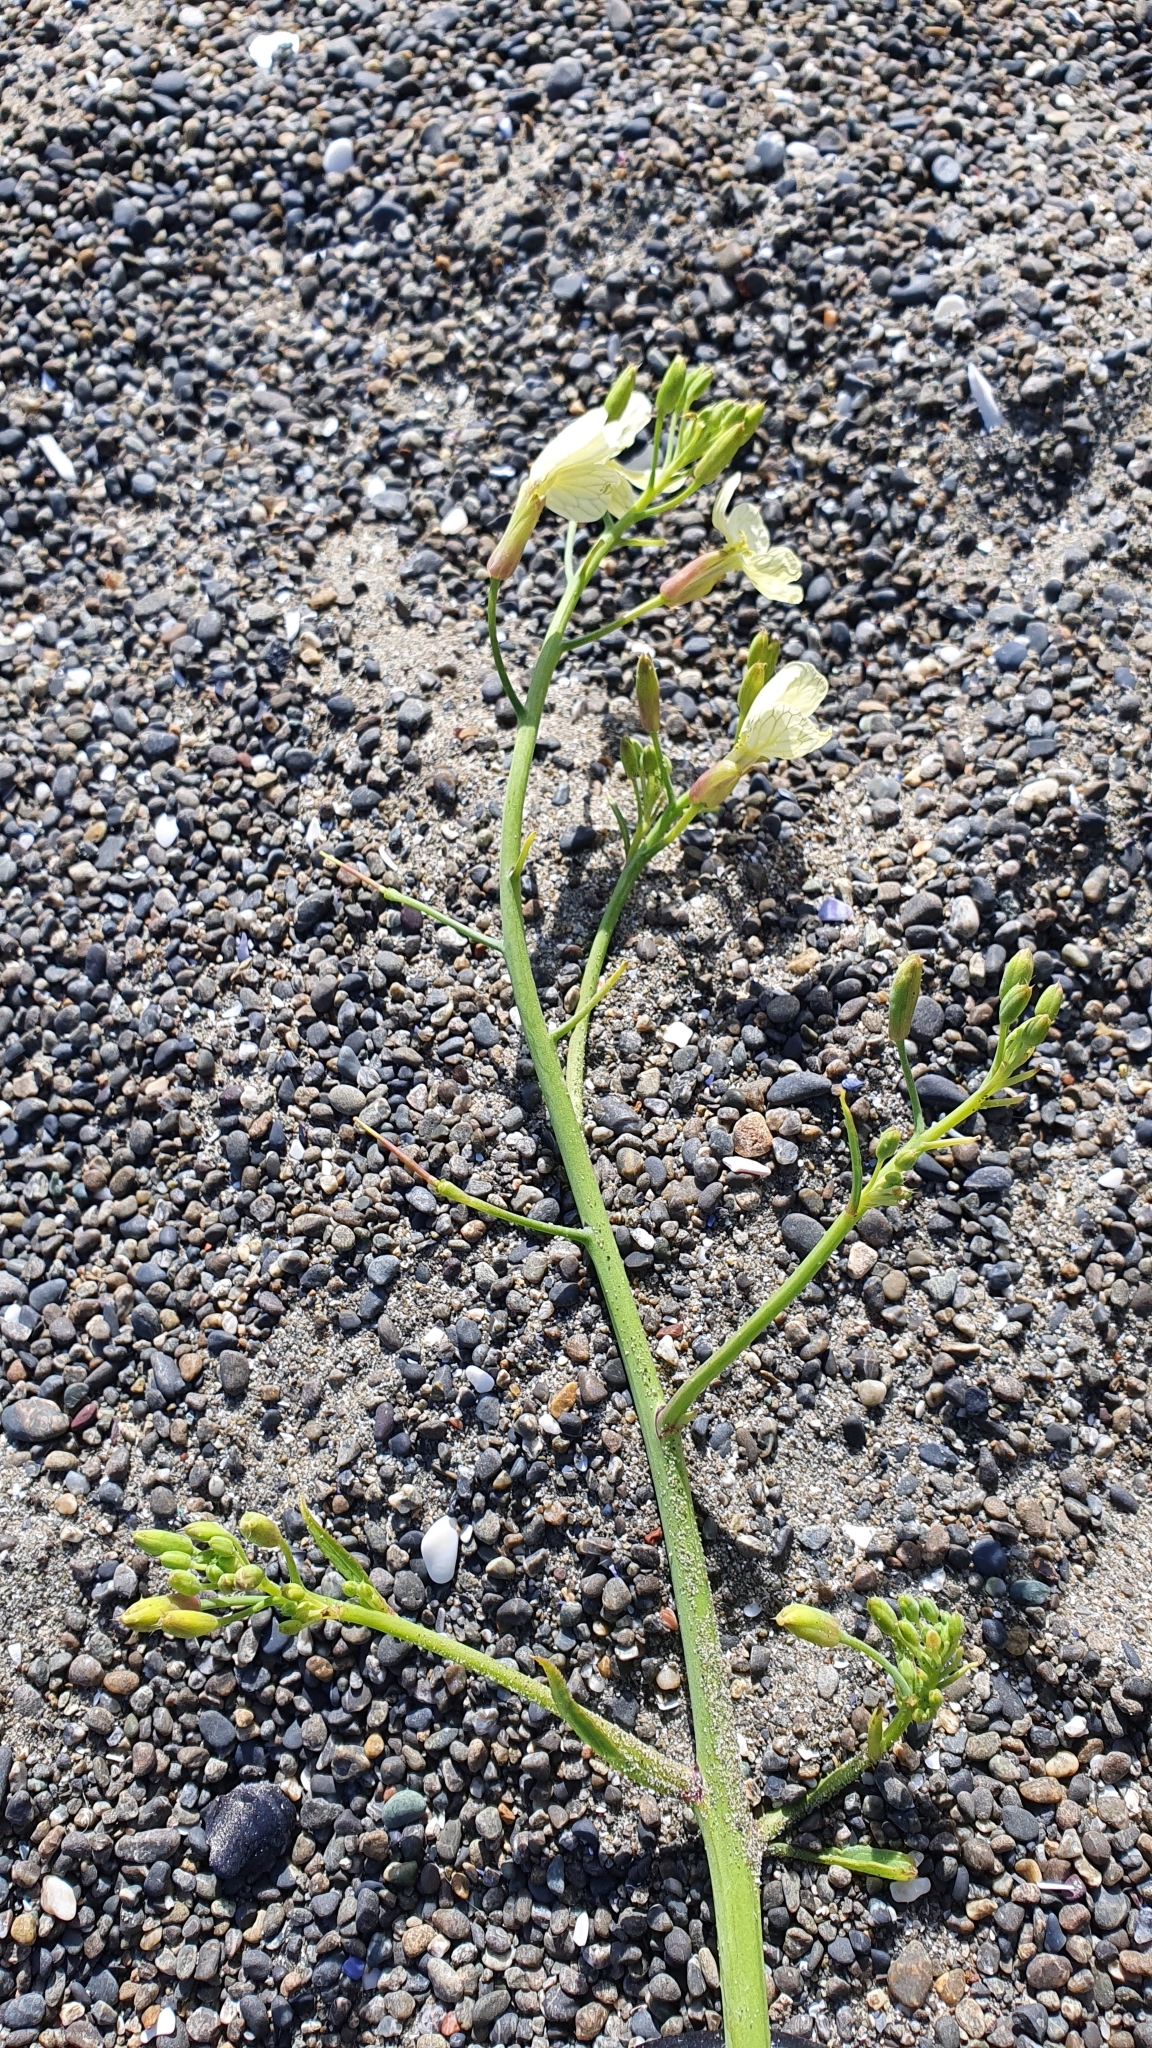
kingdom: Plantae
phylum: Tracheophyta
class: Magnoliopsida
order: Brassicales
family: Brassicaceae
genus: Raphanus
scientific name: Raphanus raphanistrum
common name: Wild radish
